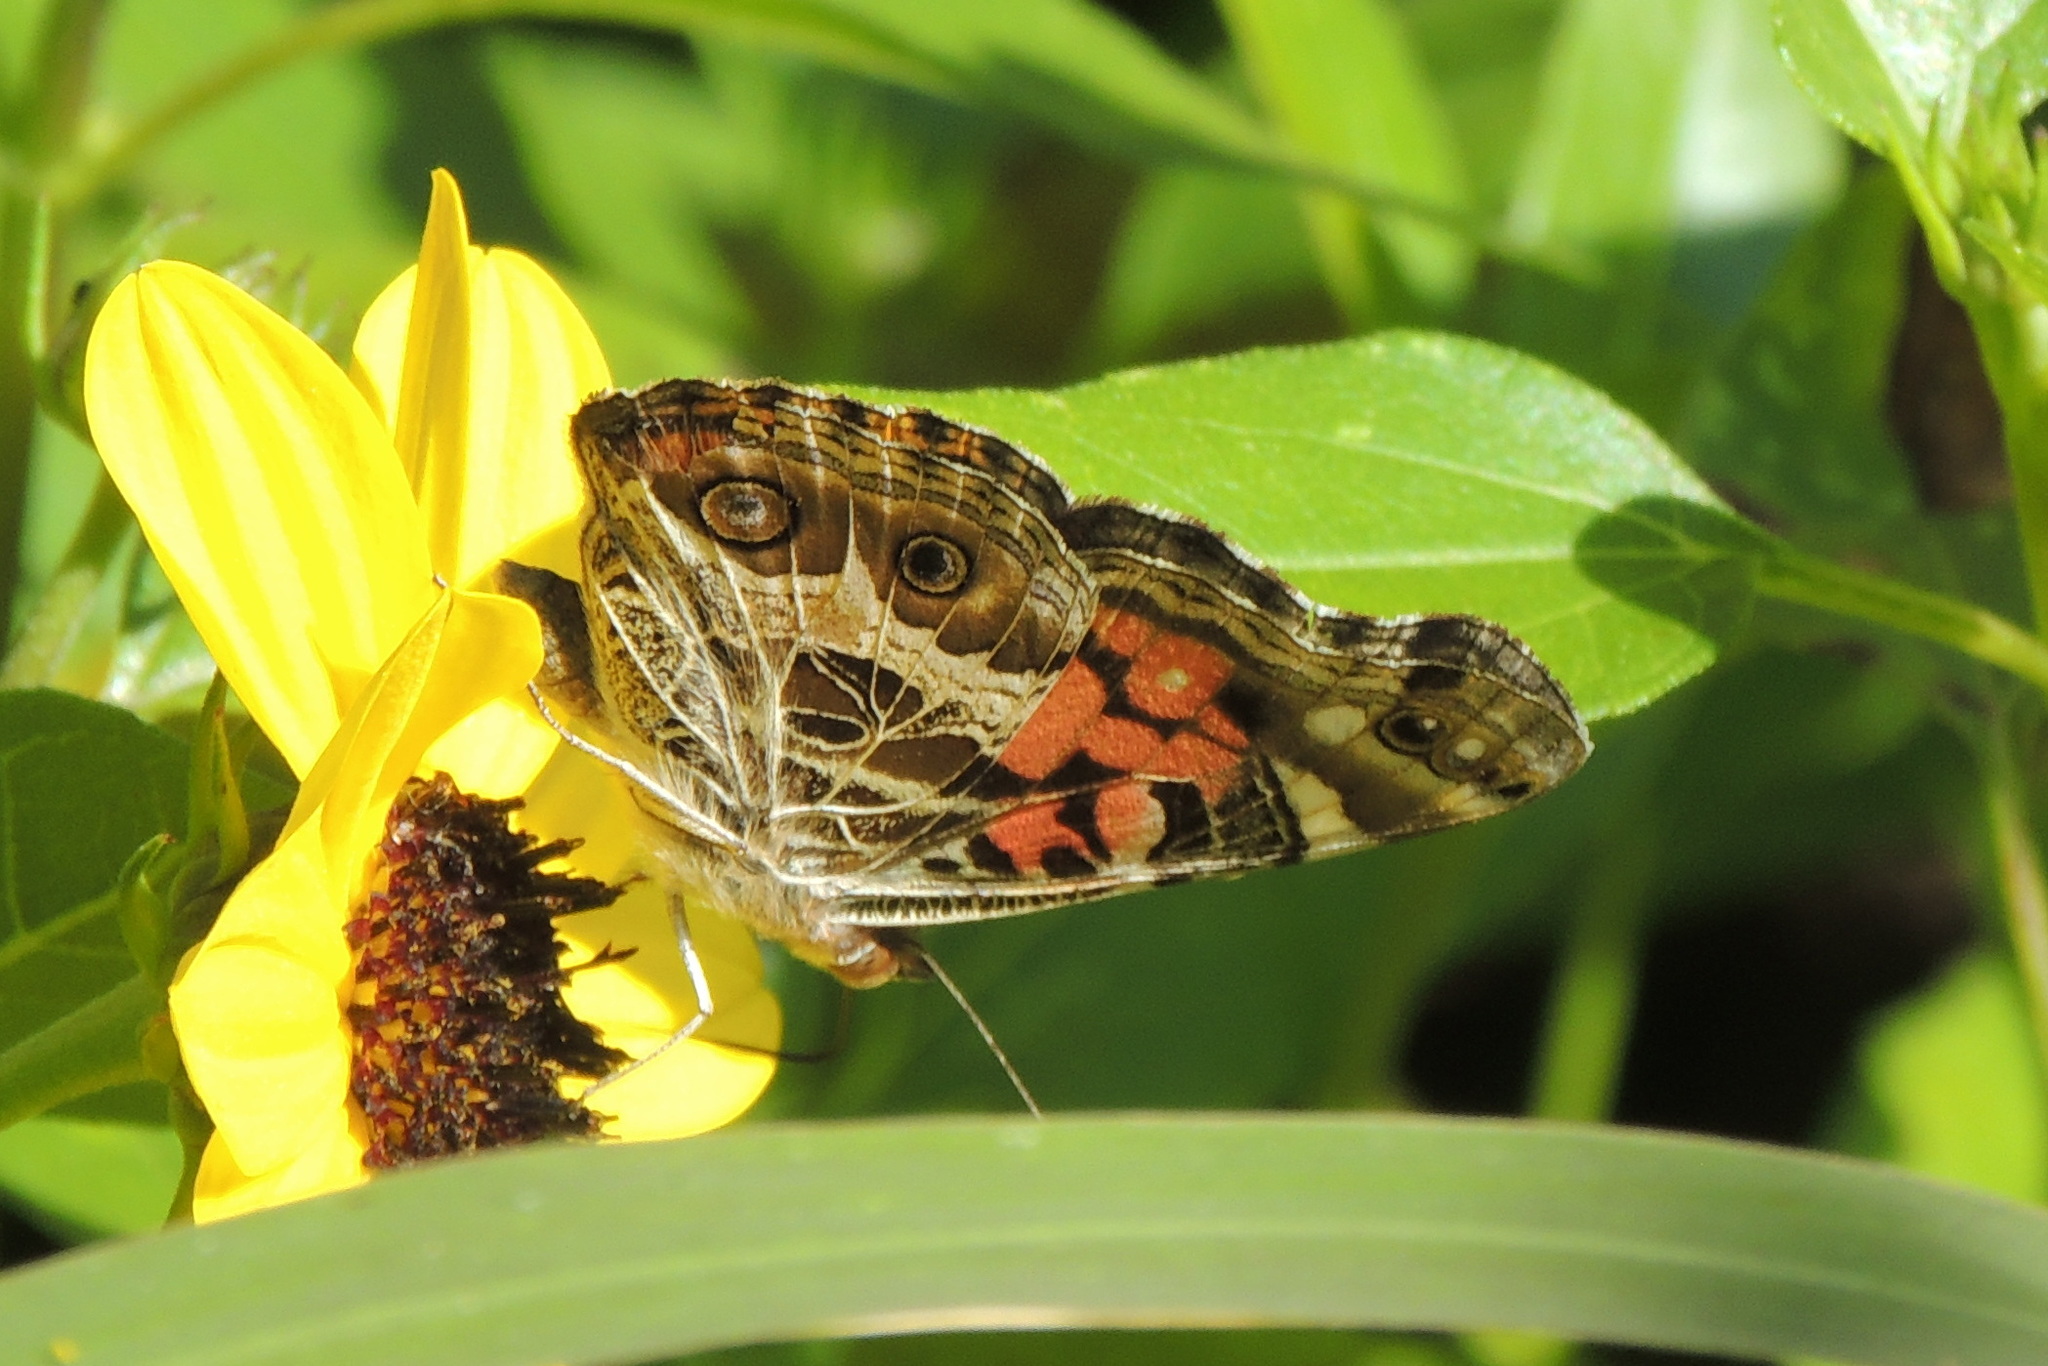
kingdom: Animalia
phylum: Arthropoda
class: Insecta
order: Lepidoptera
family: Nymphalidae
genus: Vanessa
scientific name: Vanessa virginiensis
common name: American lady
